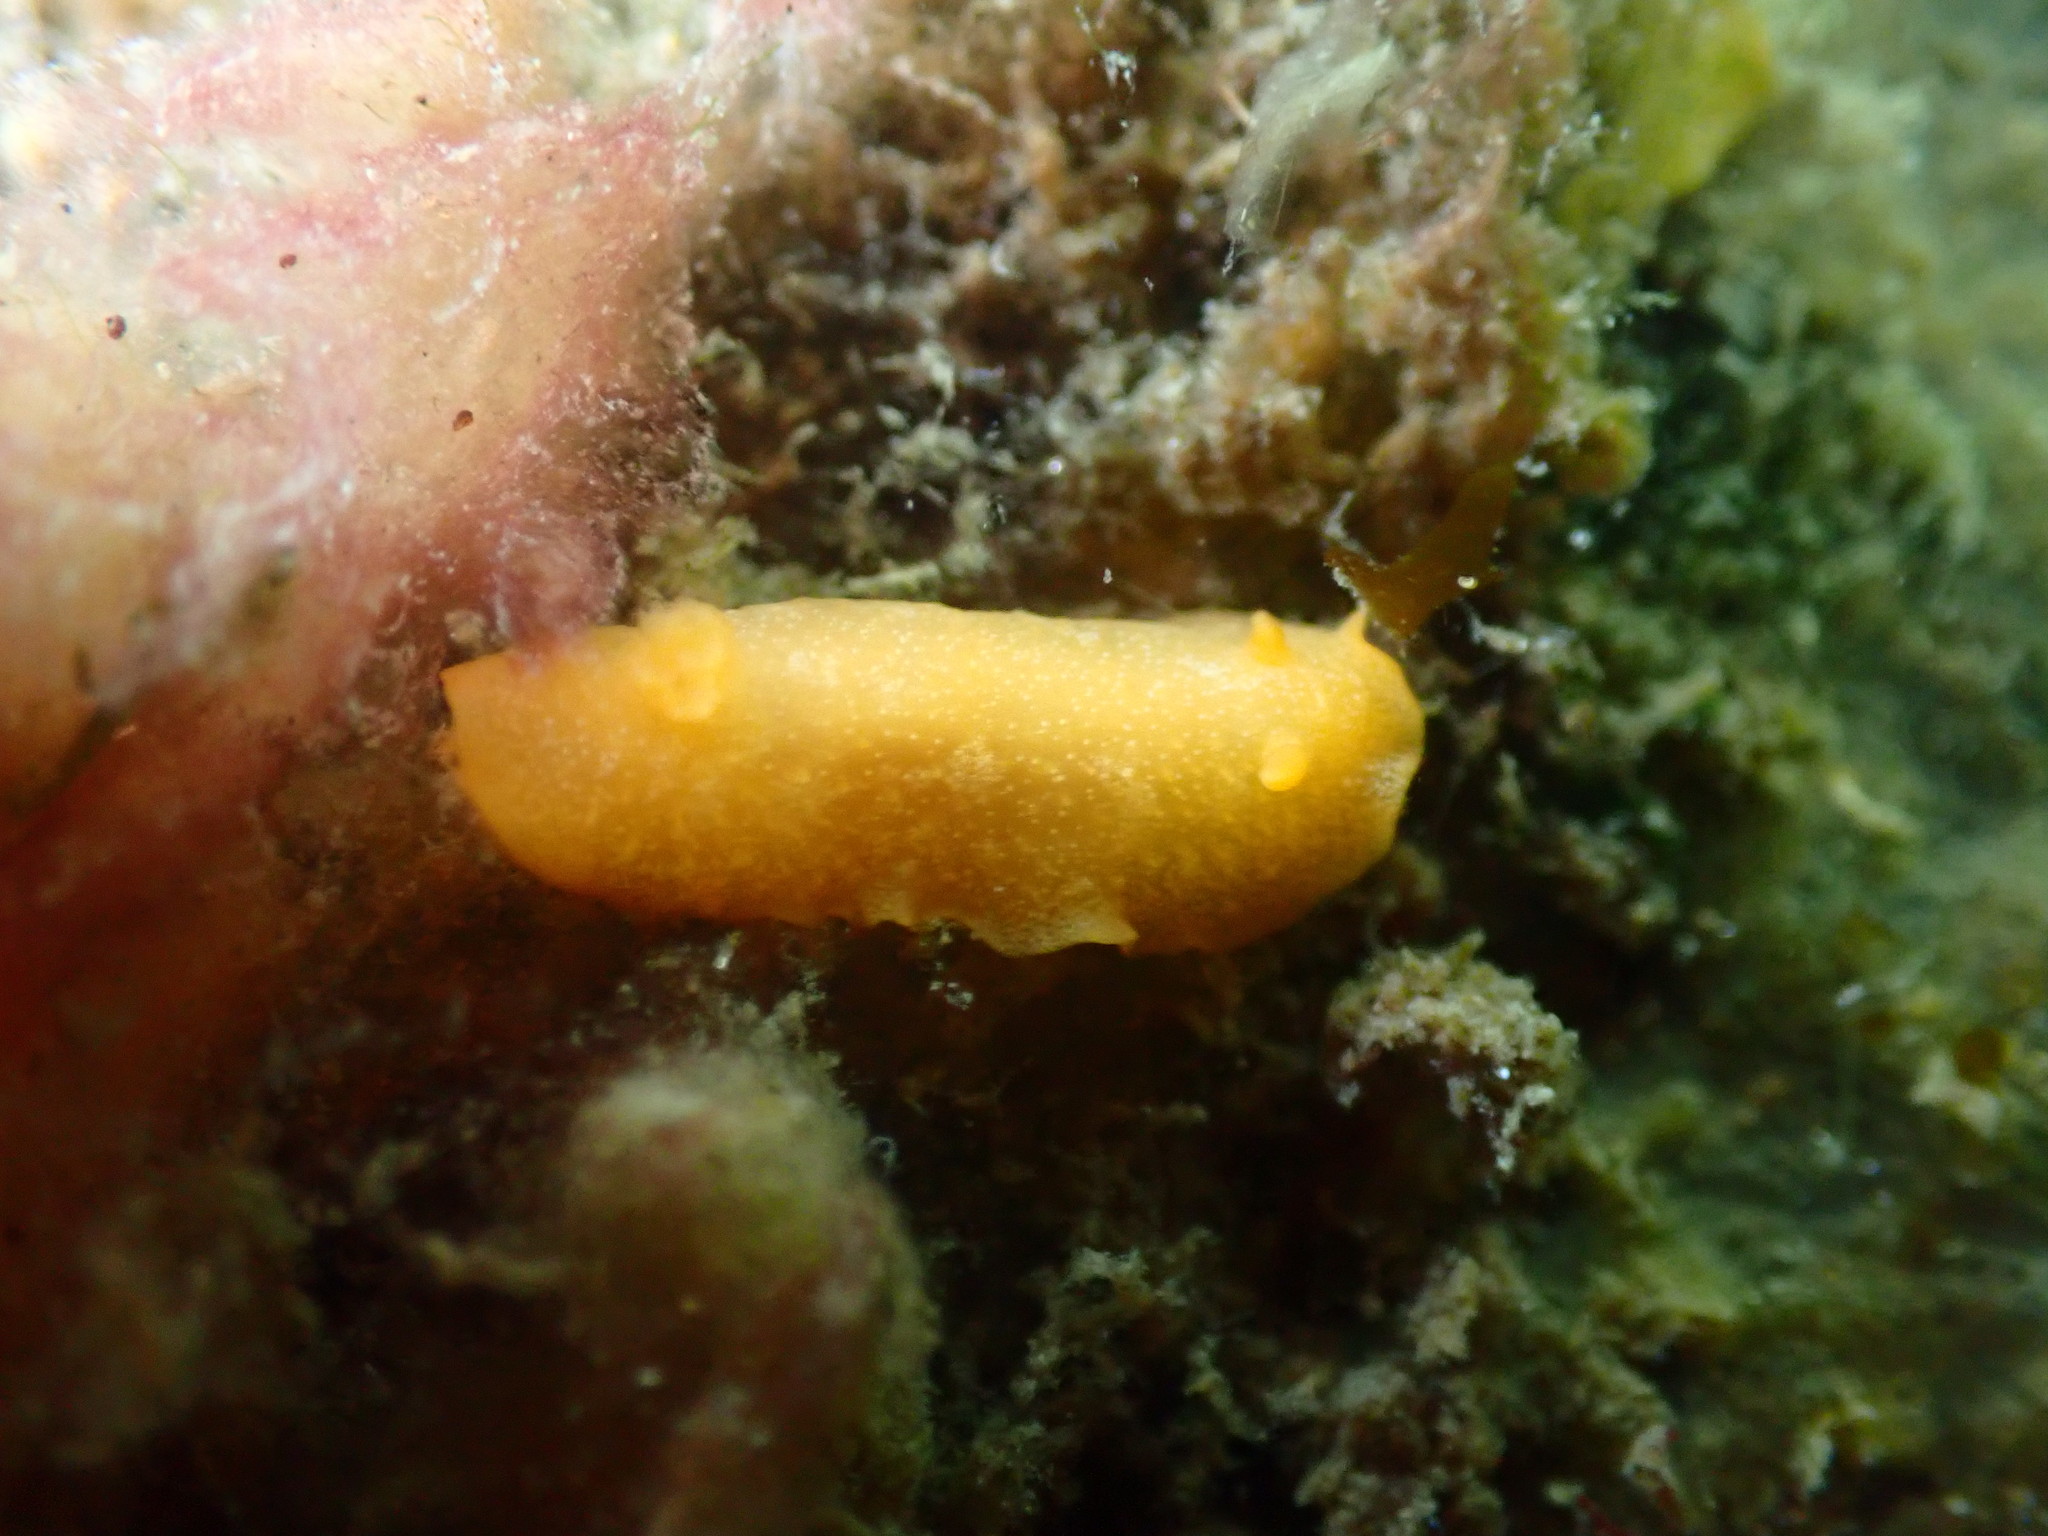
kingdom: Animalia
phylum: Mollusca
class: Gastropoda
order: Nudibranchia
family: Dendrodorididae
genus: Dendrodoris
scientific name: Dendrodoris citrina
